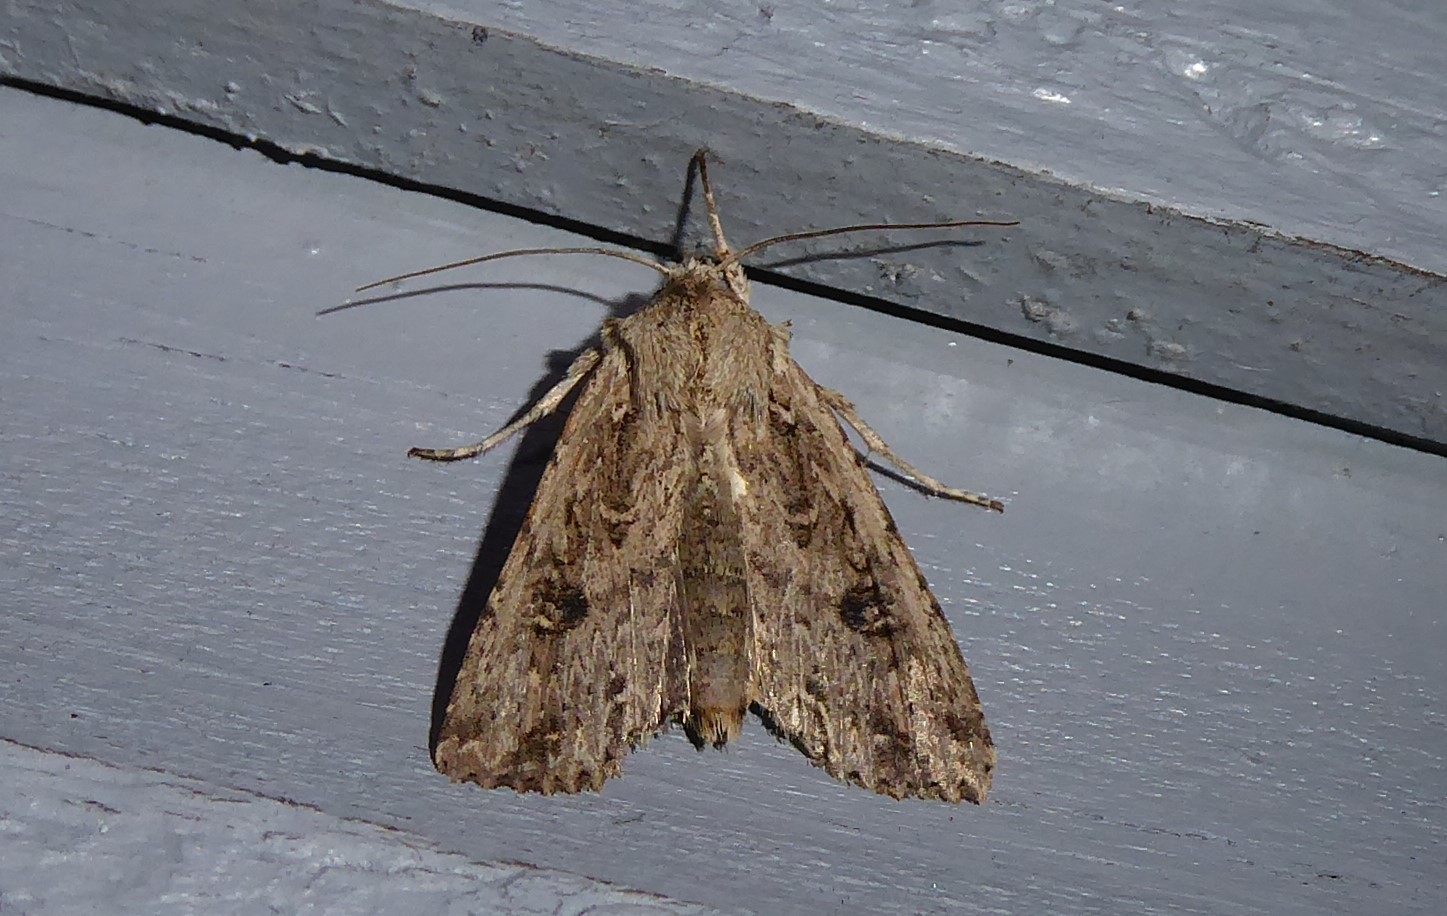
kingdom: Animalia
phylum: Arthropoda
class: Insecta
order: Lepidoptera
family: Noctuidae
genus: Ichneutica
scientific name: Ichneutica lignana
